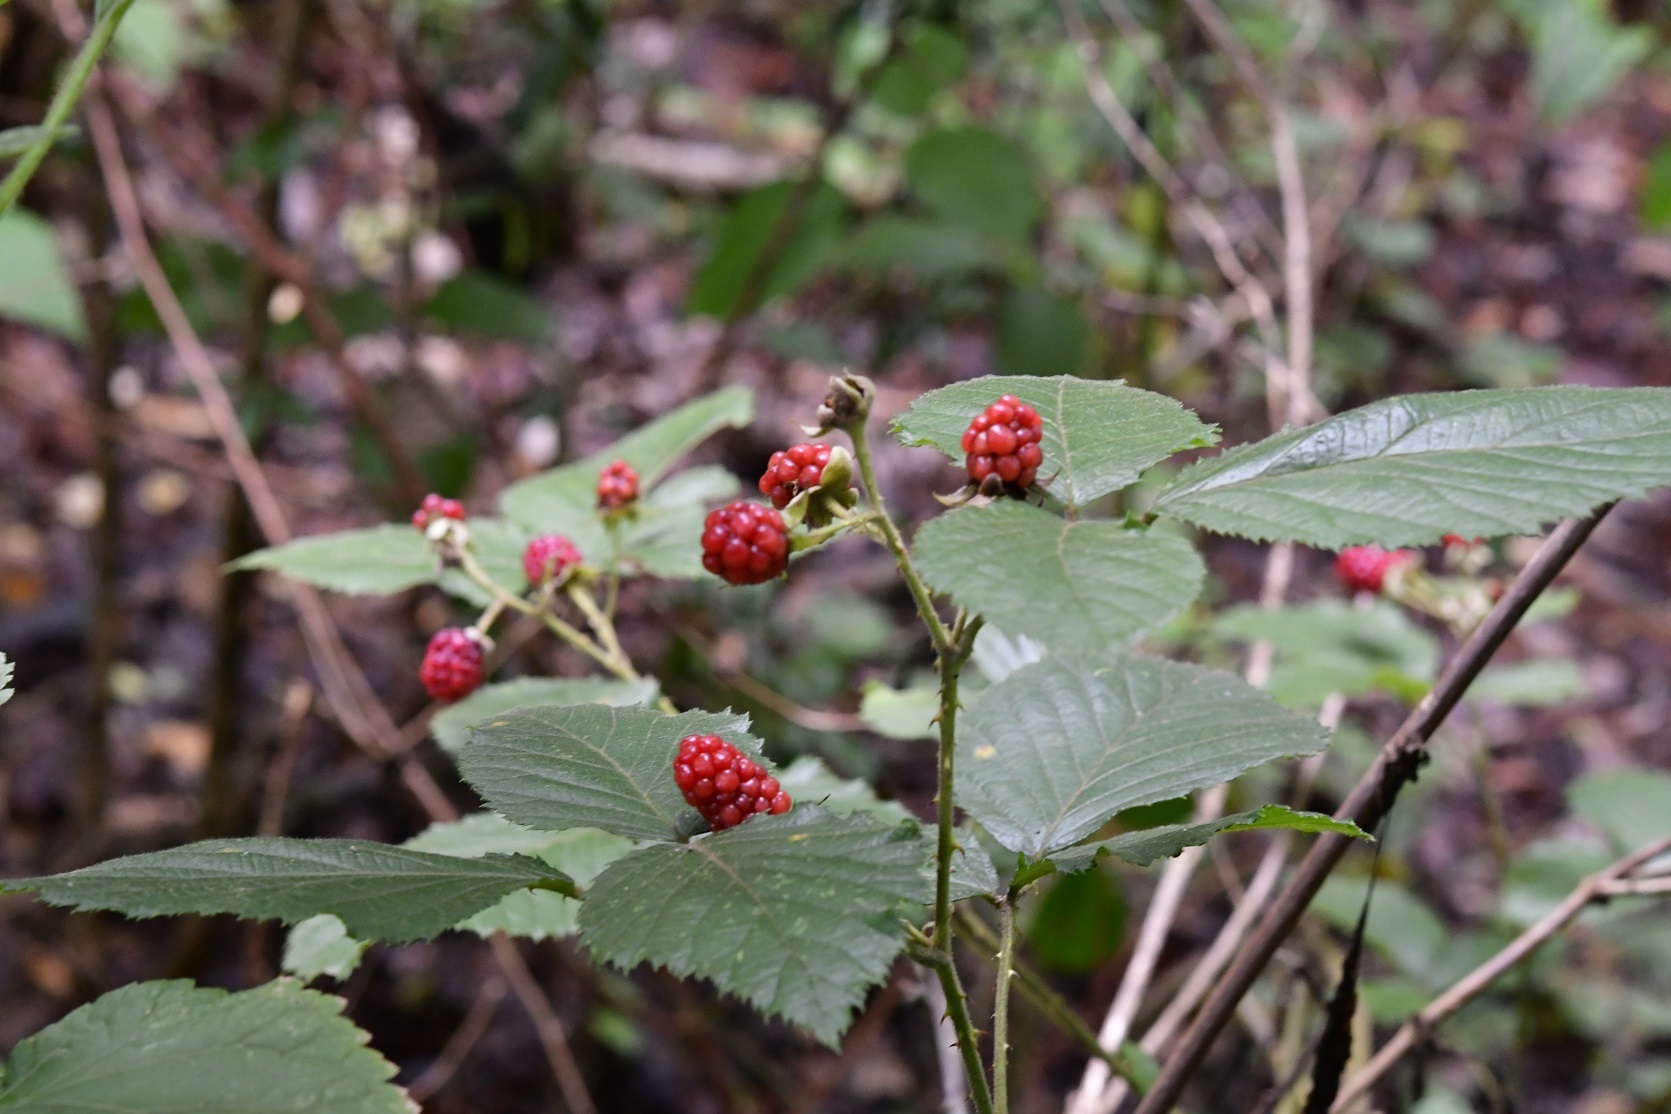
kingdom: Plantae
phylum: Tracheophyta
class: Magnoliopsida
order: Rosales
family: Rosaceae
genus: Rubus
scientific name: Rubus sapidus
